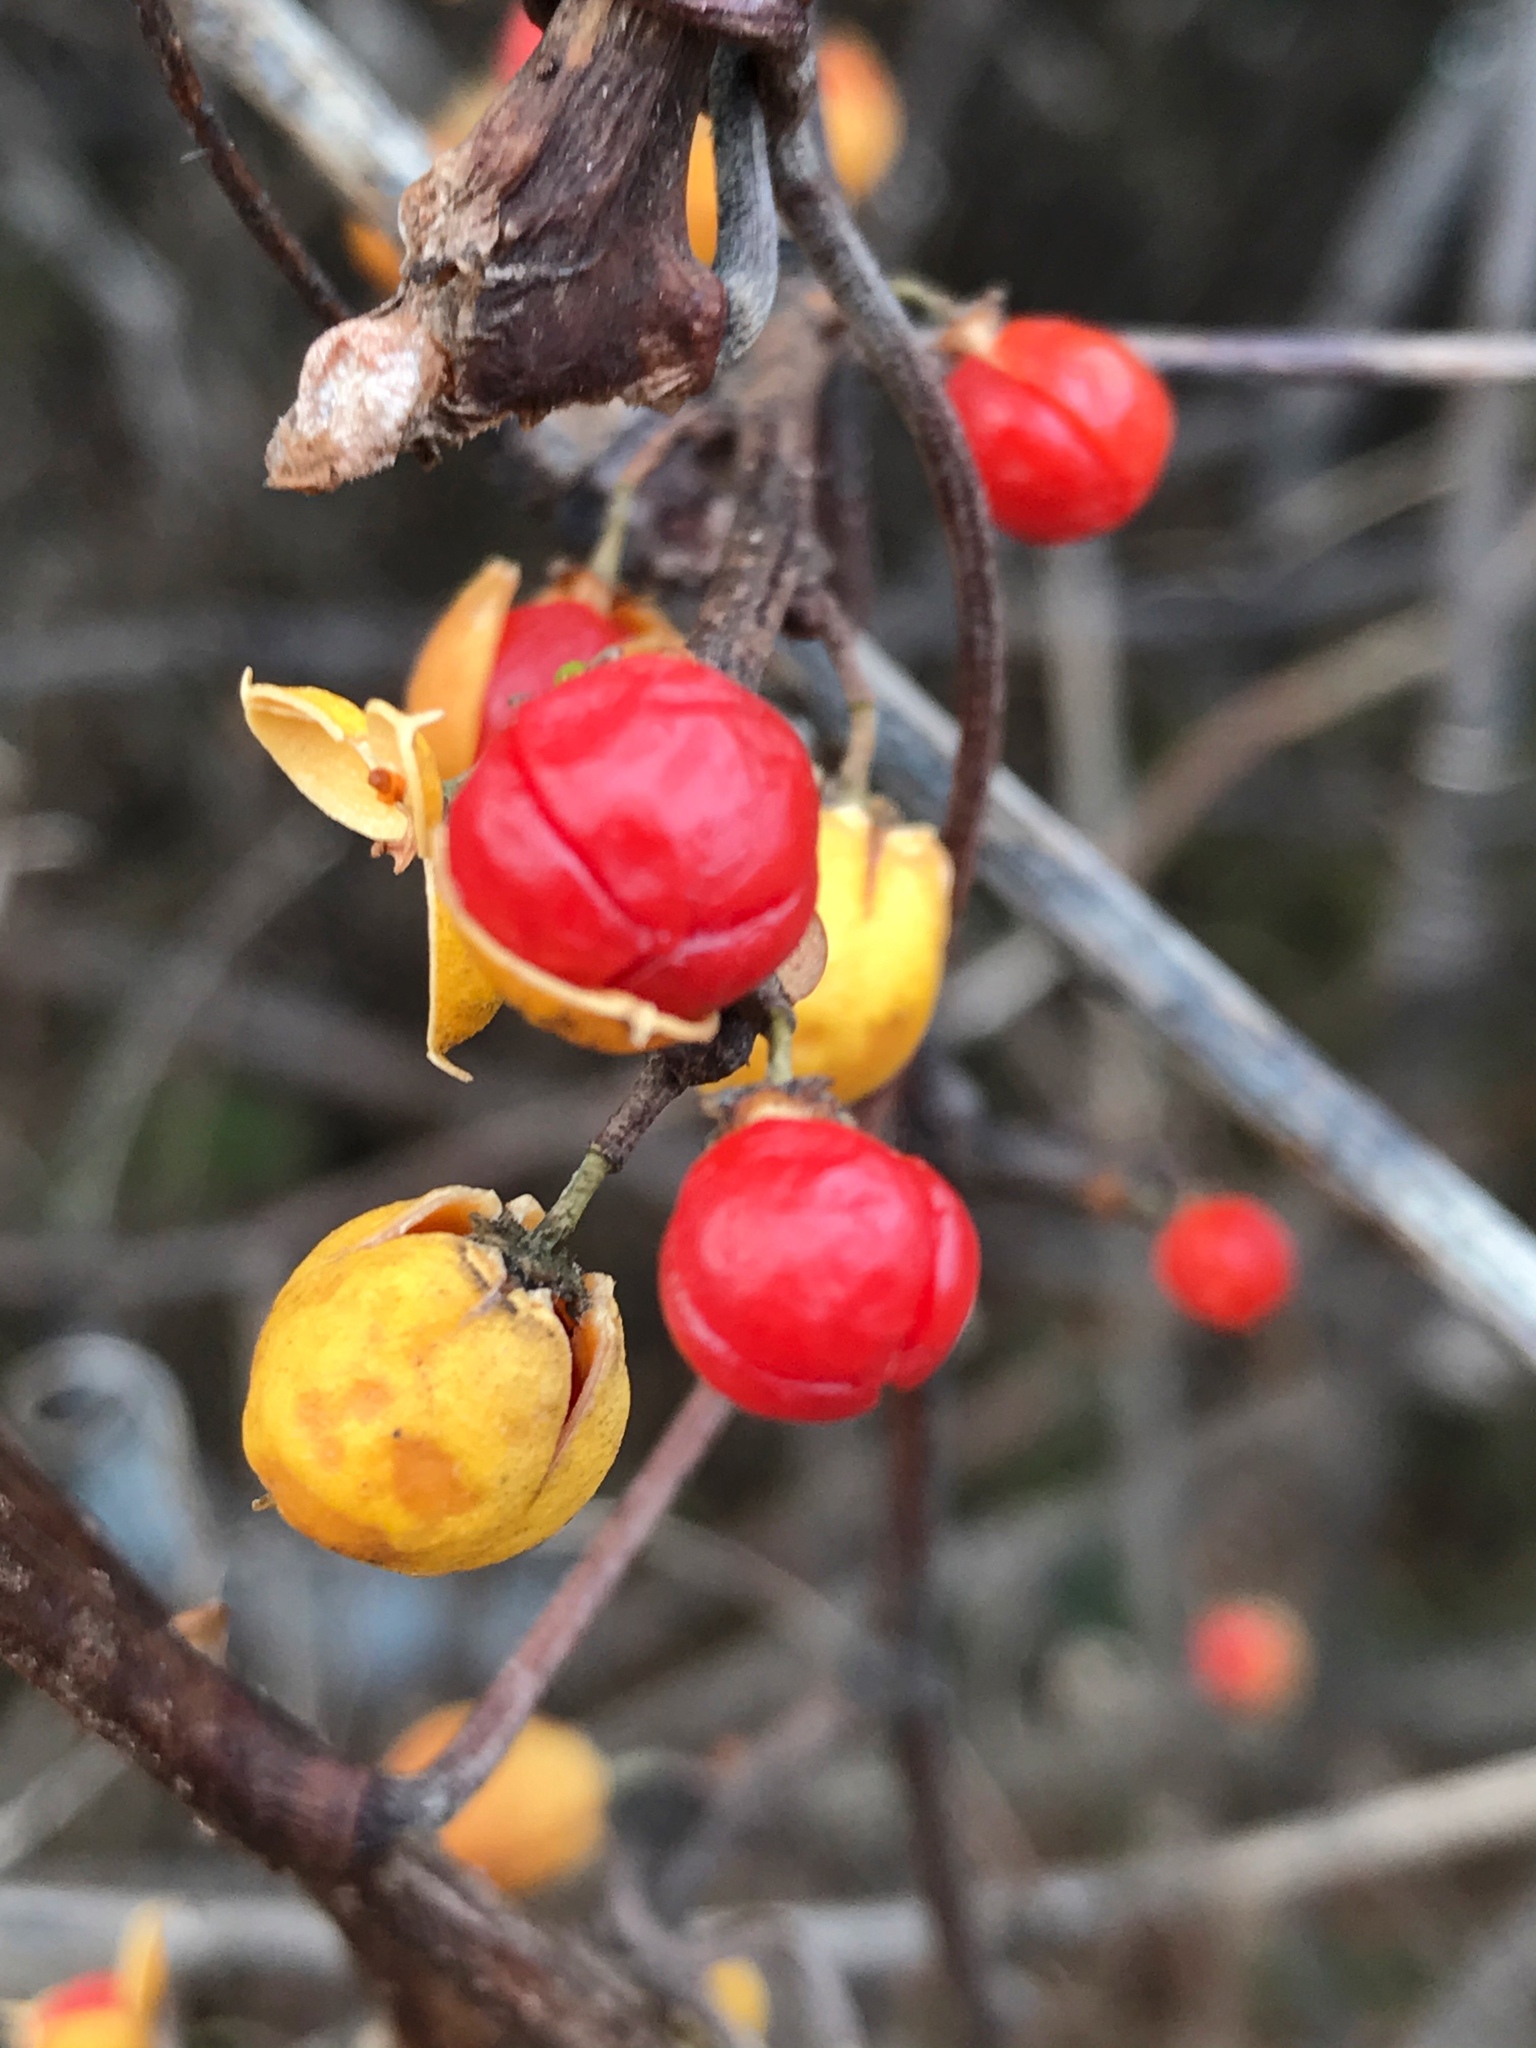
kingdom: Plantae
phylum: Tracheophyta
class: Magnoliopsida
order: Celastrales
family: Celastraceae
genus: Celastrus
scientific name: Celastrus orbiculatus
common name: Oriental bittersweet
